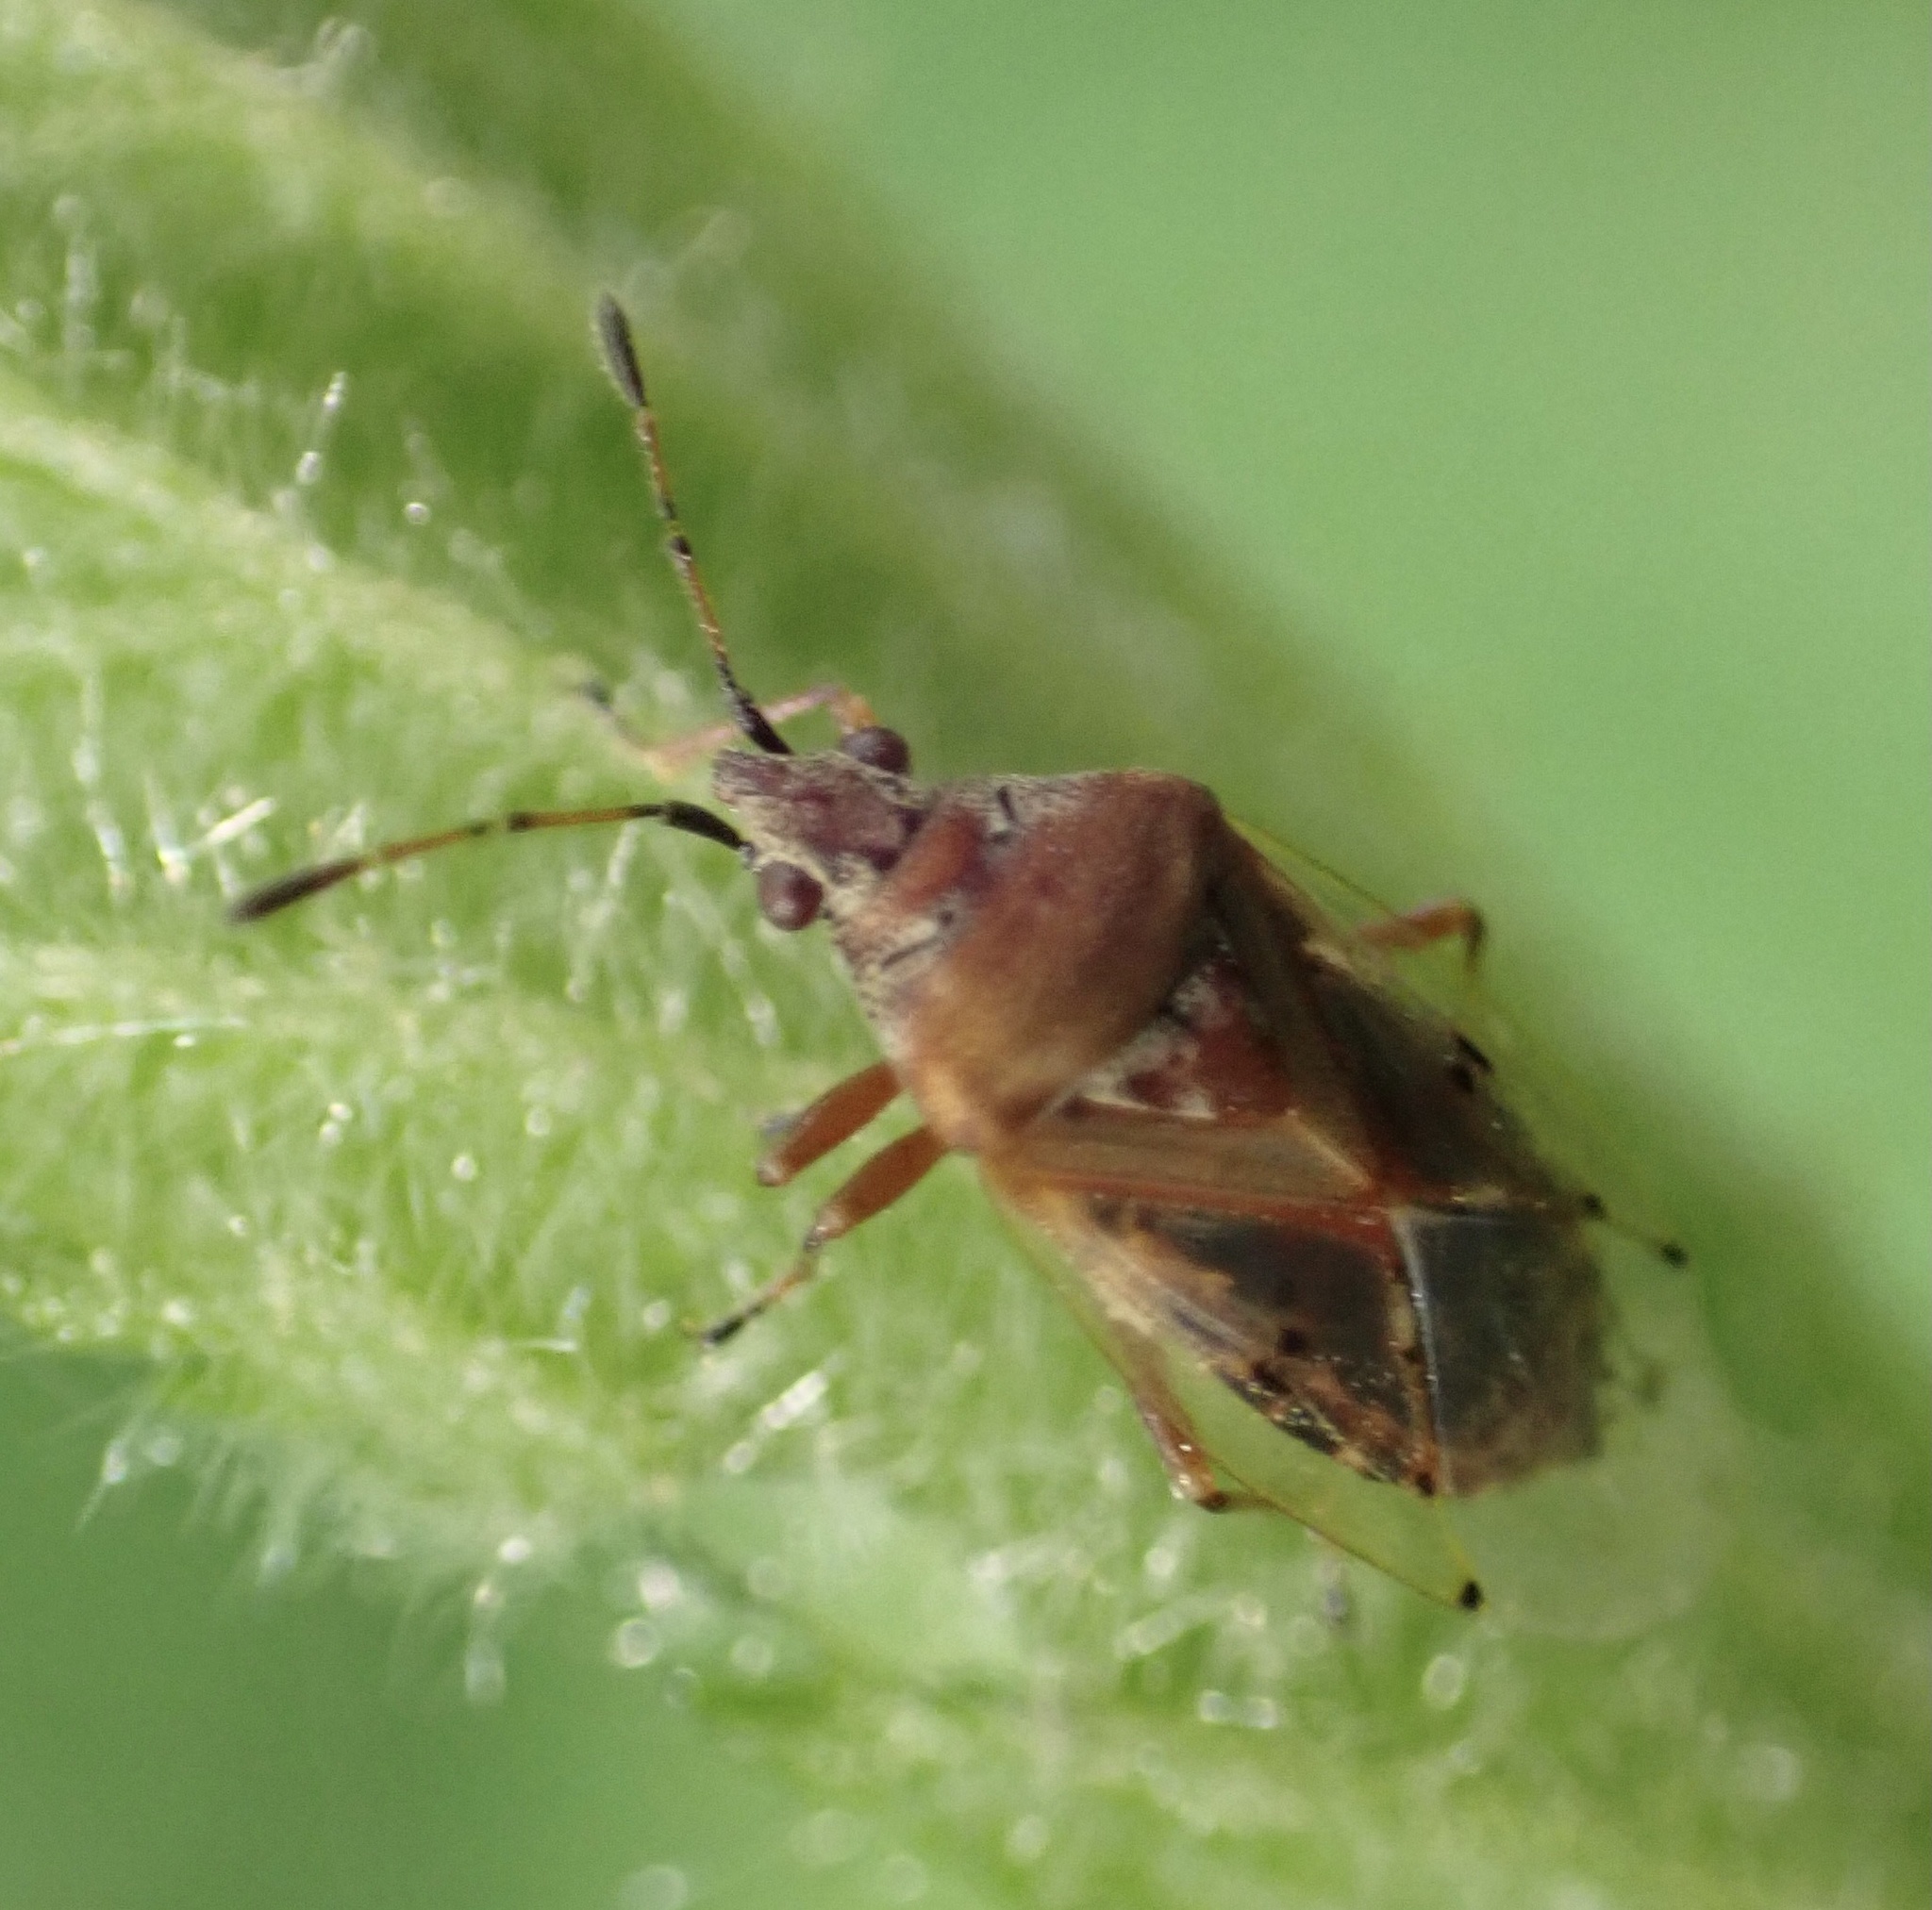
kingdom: Animalia
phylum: Arthropoda
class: Insecta
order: Hemiptera
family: Lygaeidae
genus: Kleidocerys
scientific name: Kleidocerys resedae
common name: Birch catkin bug
